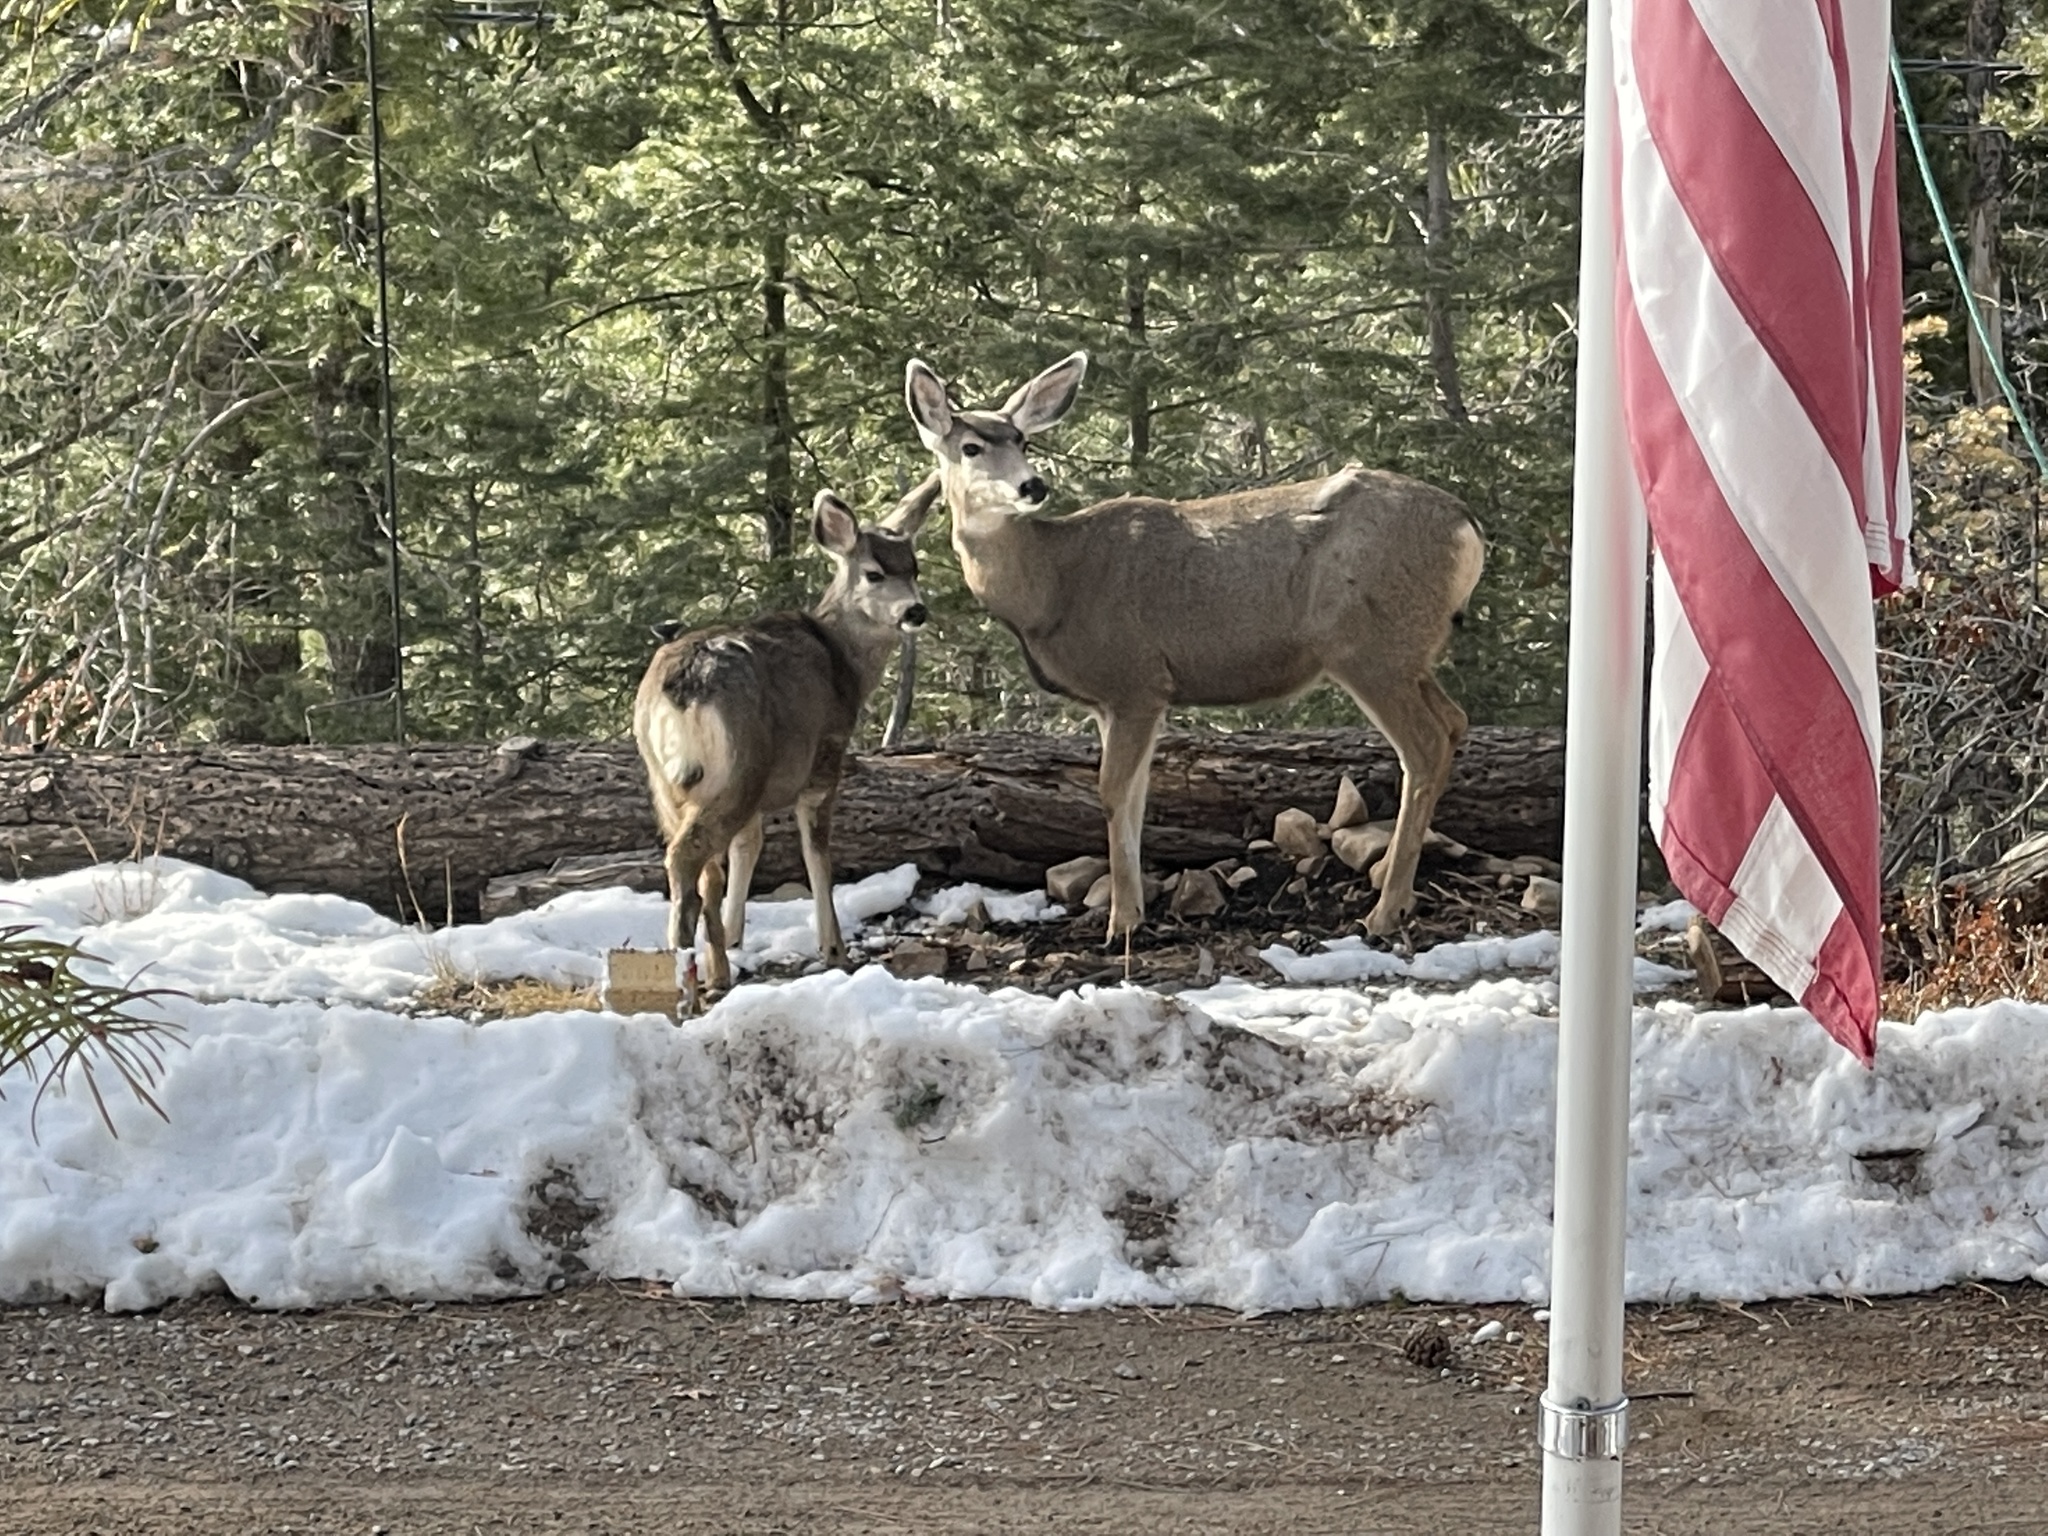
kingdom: Animalia
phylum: Chordata
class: Mammalia
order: Artiodactyla
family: Cervidae
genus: Odocoileus
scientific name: Odocoileus hemionus
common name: Mule deer
